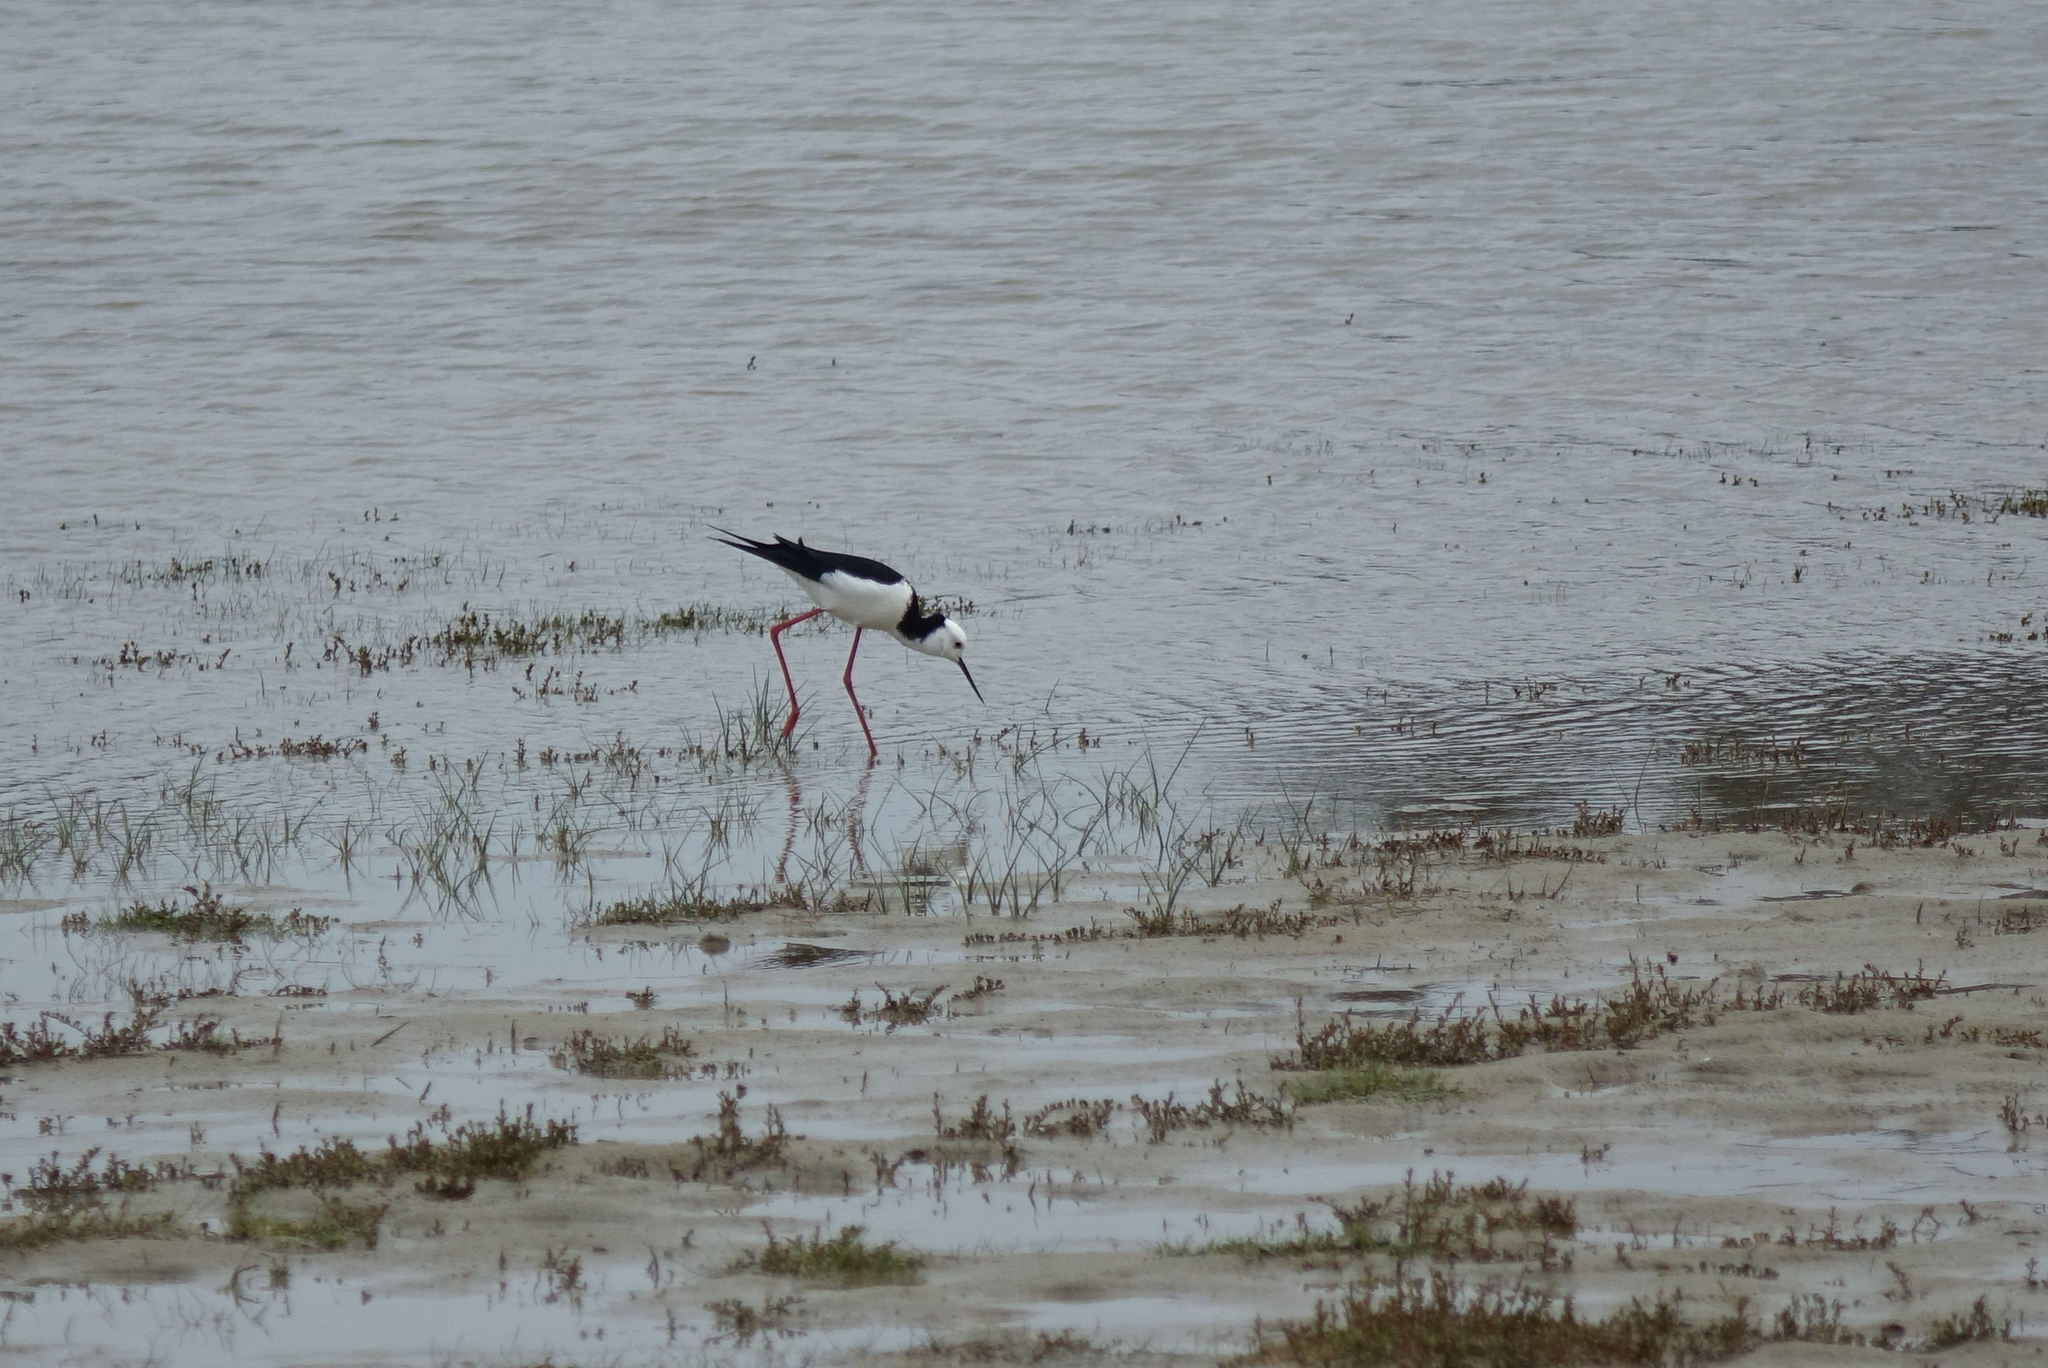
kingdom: Animalia
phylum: Chordata
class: Aves
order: Charadriiformes
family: Recurvirostridae
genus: Himantopus
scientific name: Himantopus leucocephalus
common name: White-headed stilt
